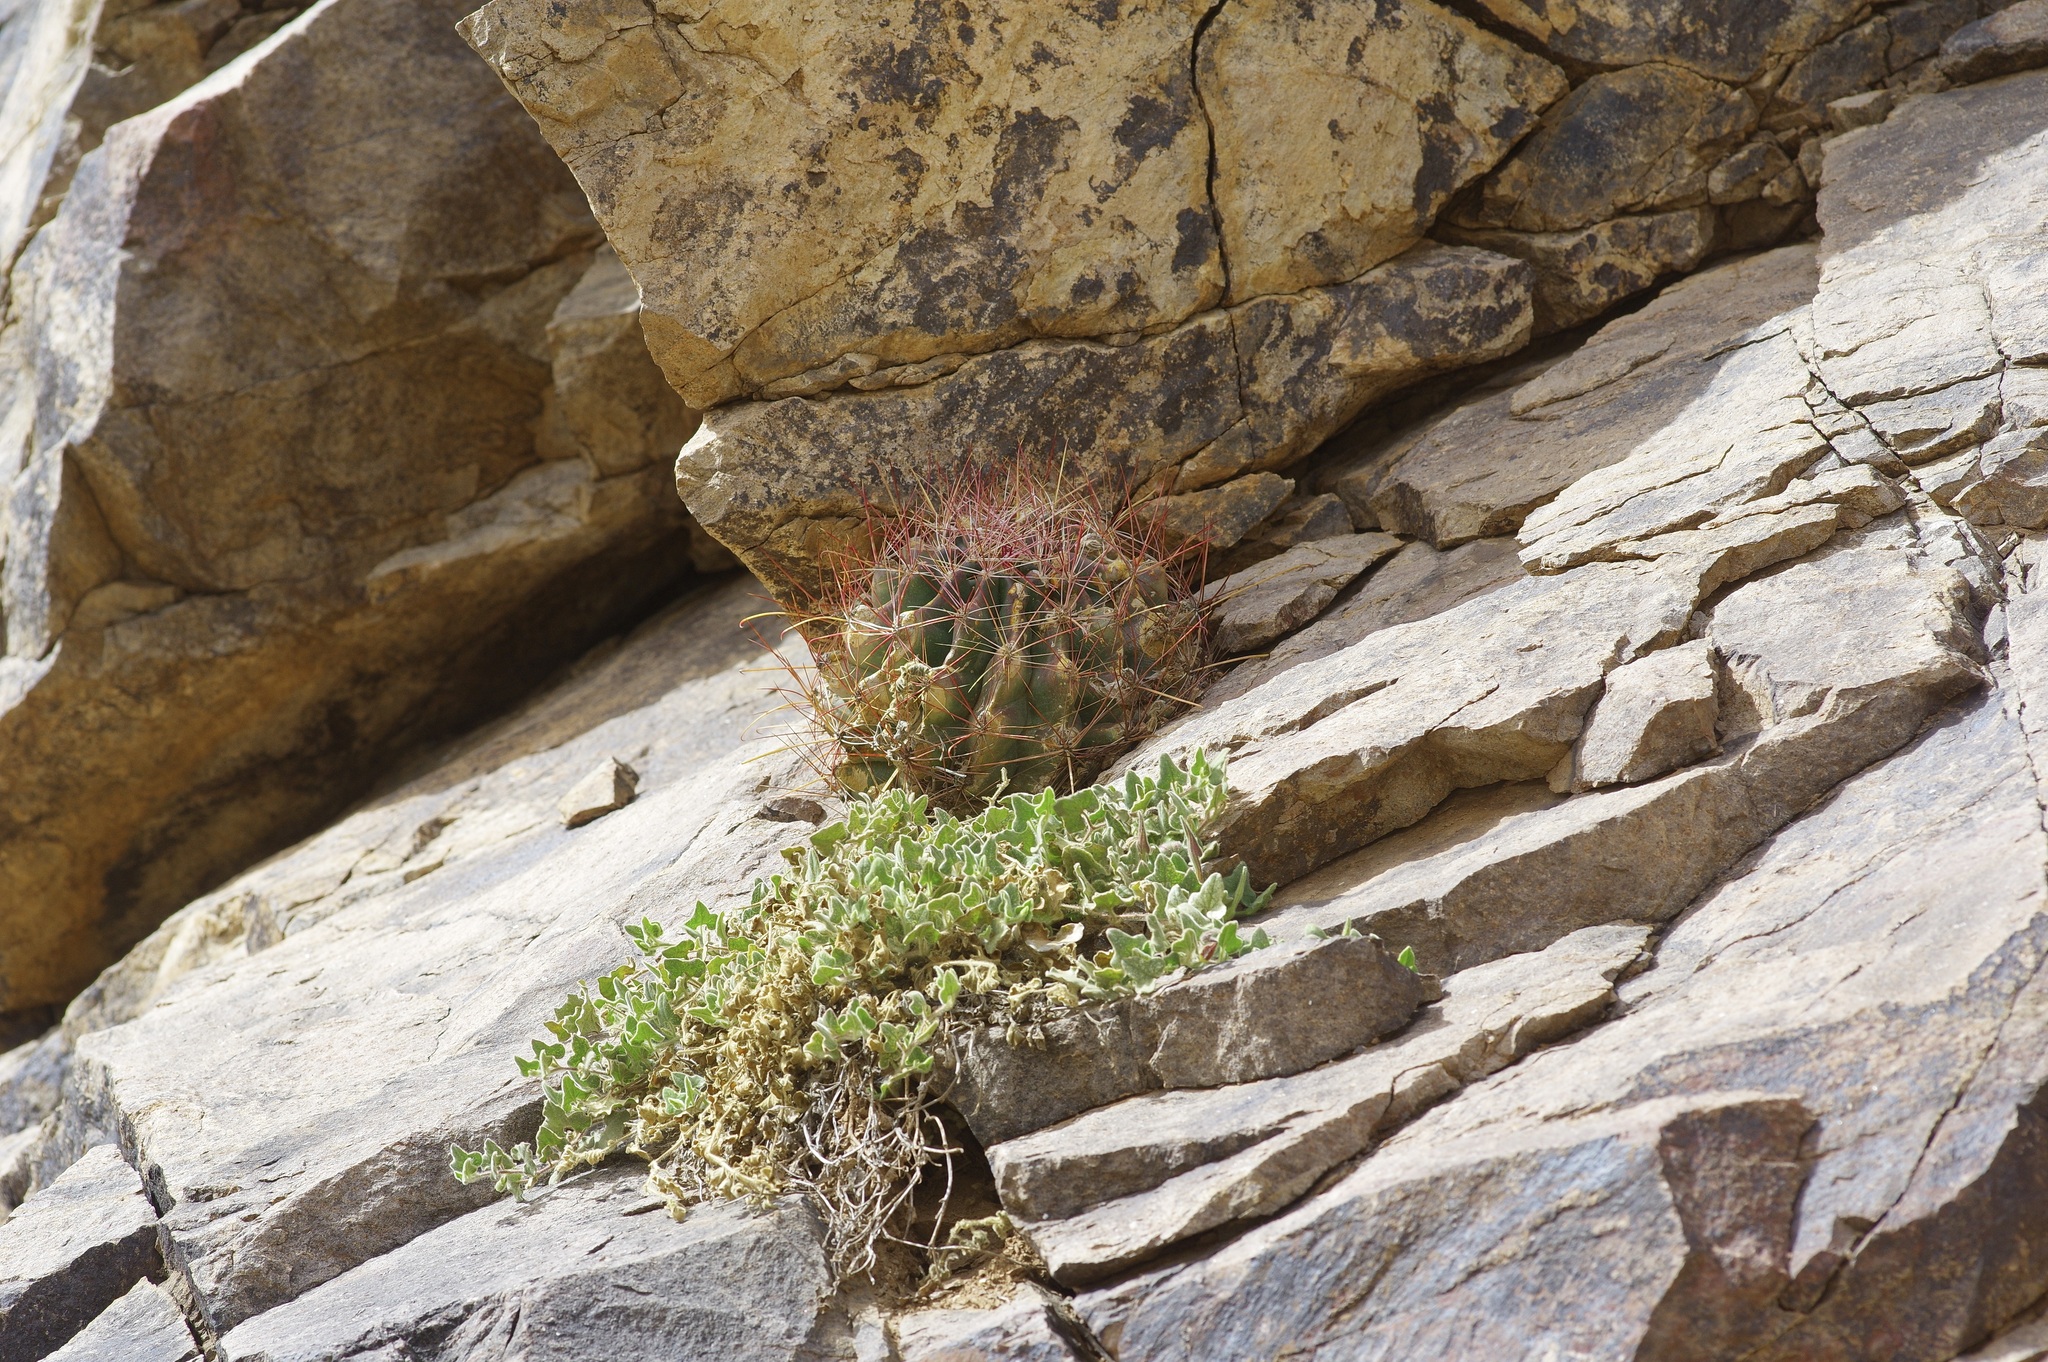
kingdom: Plantae
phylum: Tracheophyta
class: Magnoliopsida
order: Caryophyllales
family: Cactaceae
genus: Bisnaga
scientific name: Bisnaga hamatacantha
